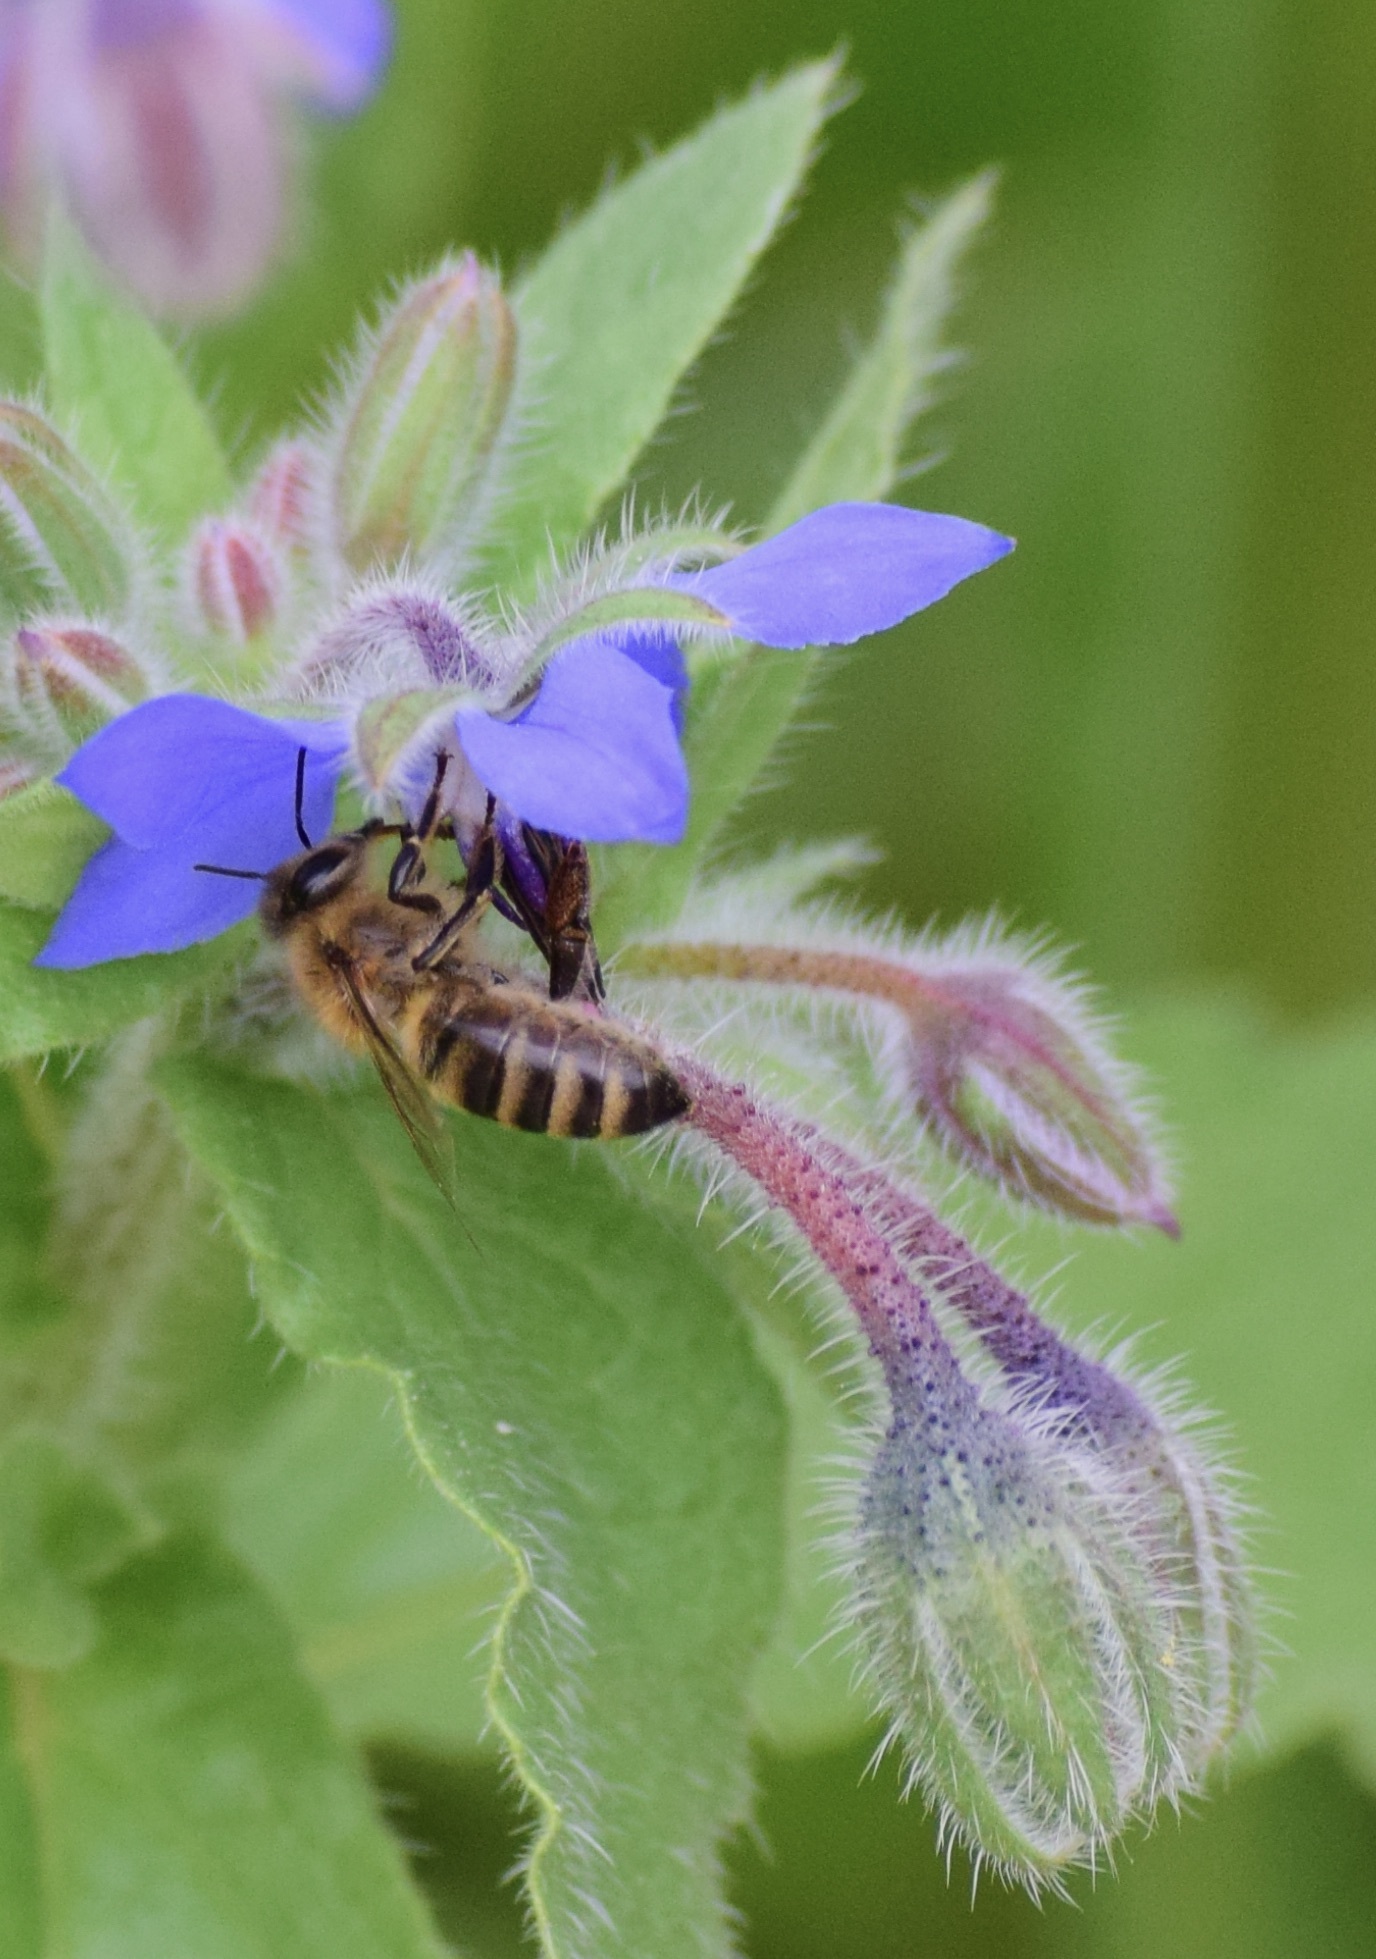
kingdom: Animalia
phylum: Arthropoda
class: Insecta
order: Hymenoptera
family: Apidae
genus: Apis
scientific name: Apis mellifera
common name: Honey bee
